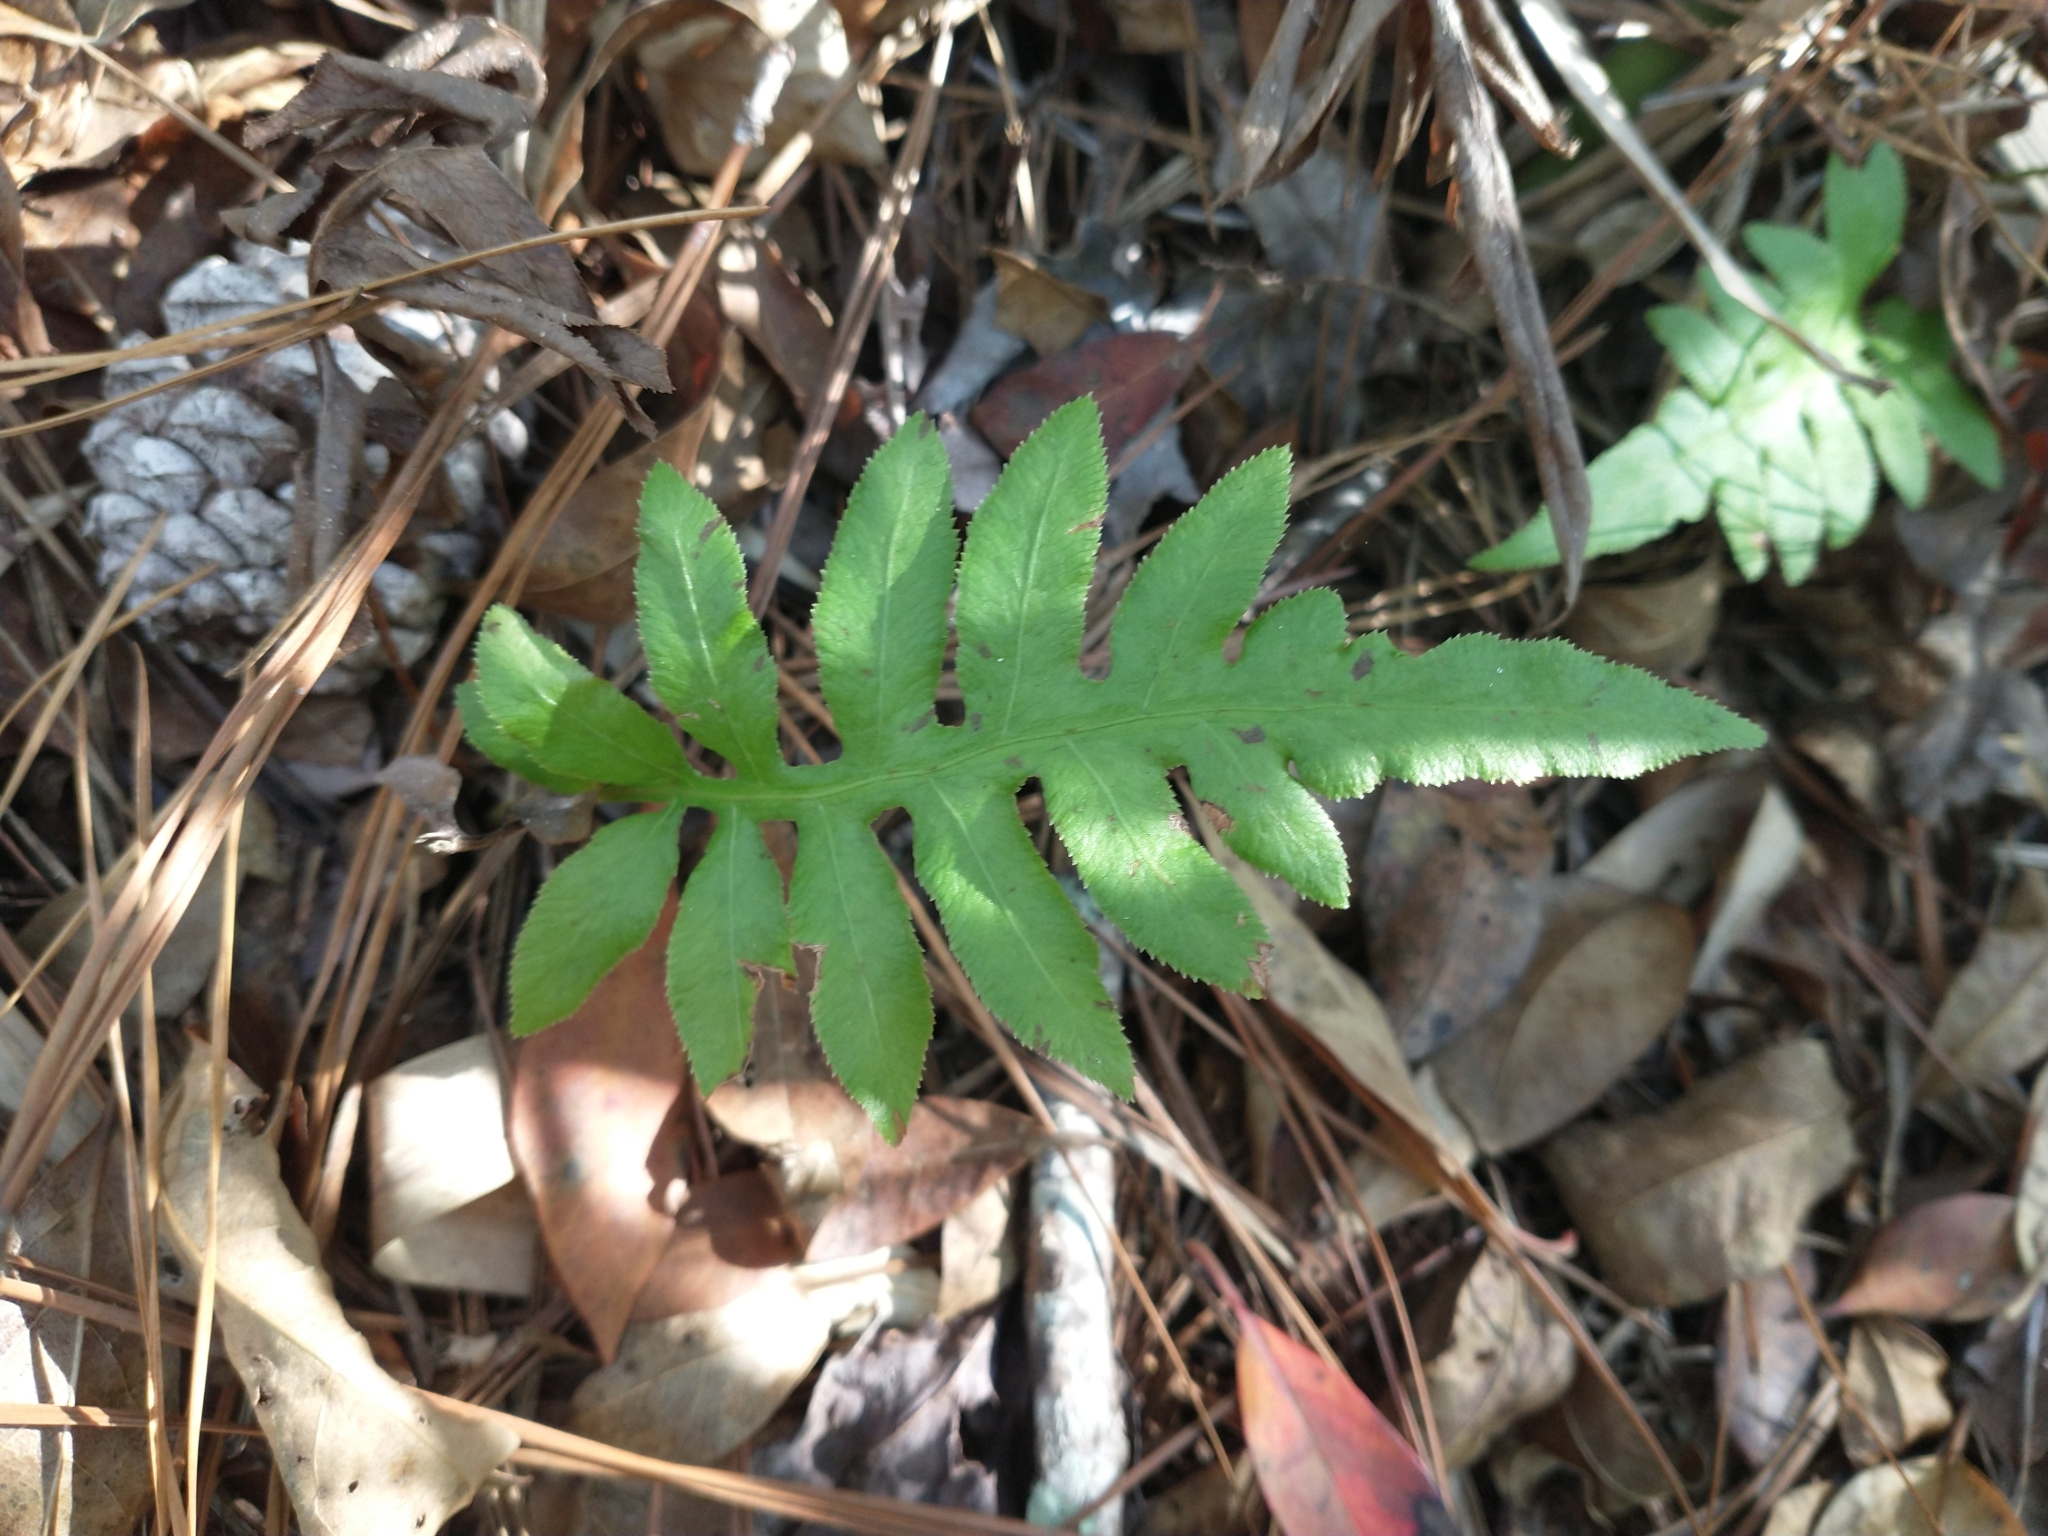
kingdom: Plantae
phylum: Tracheophyta
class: Polypodiopsida
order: Polypodiales
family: Blechnaceae
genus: Lorinseria
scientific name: Lorinseria areolata
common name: Dwarf chain fern
